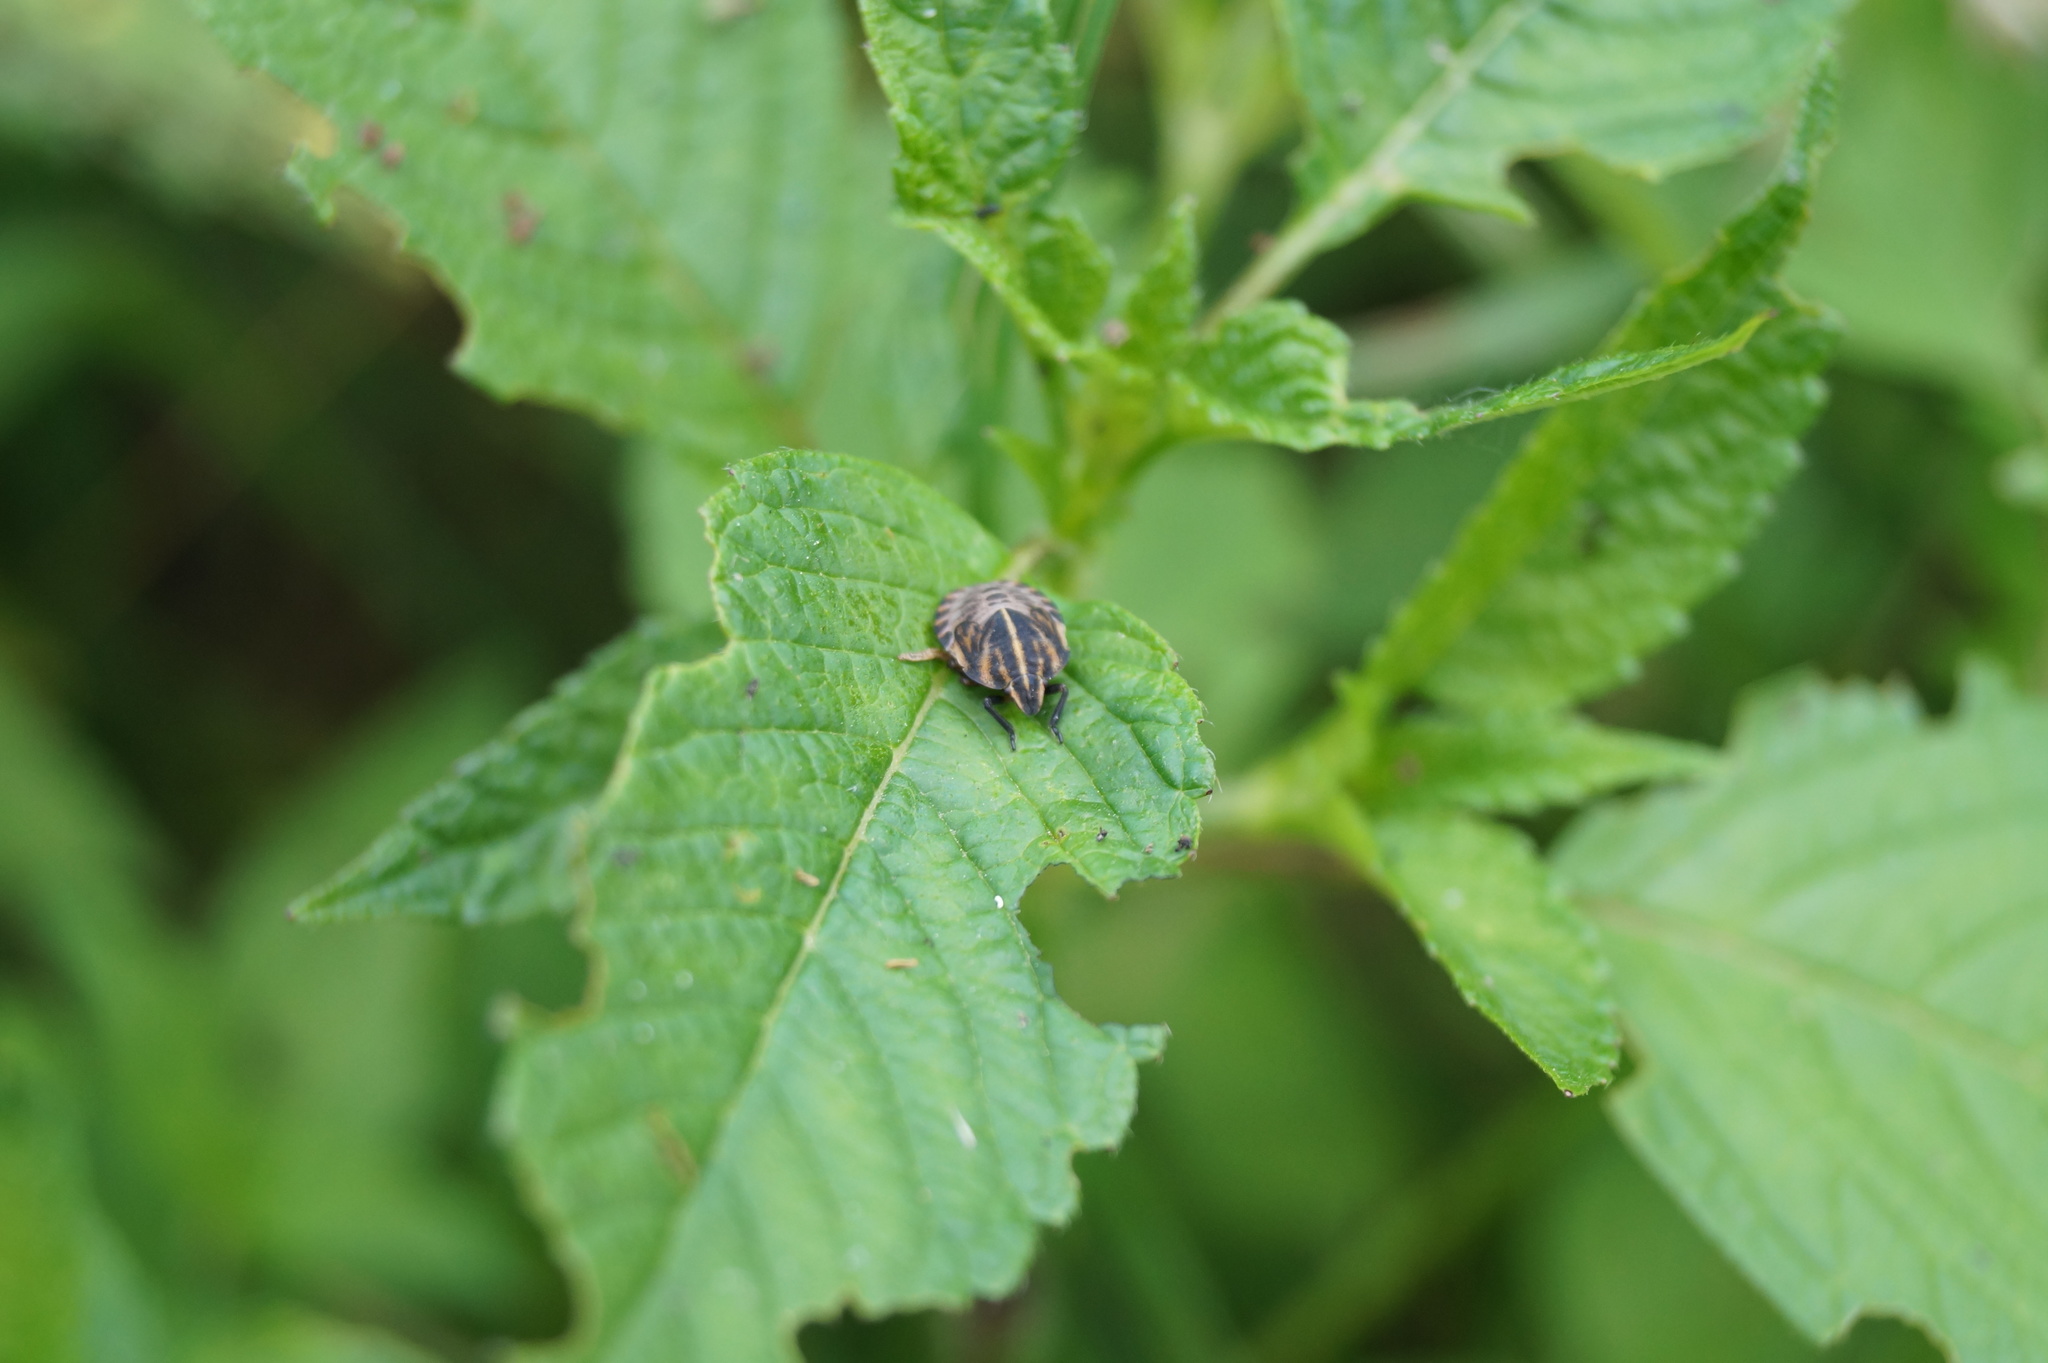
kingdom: Animalia
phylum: Arthropoda
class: Insecta
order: Hemiptera
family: Pentatomidae
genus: Graphosoma
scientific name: Graphosoma italicum
